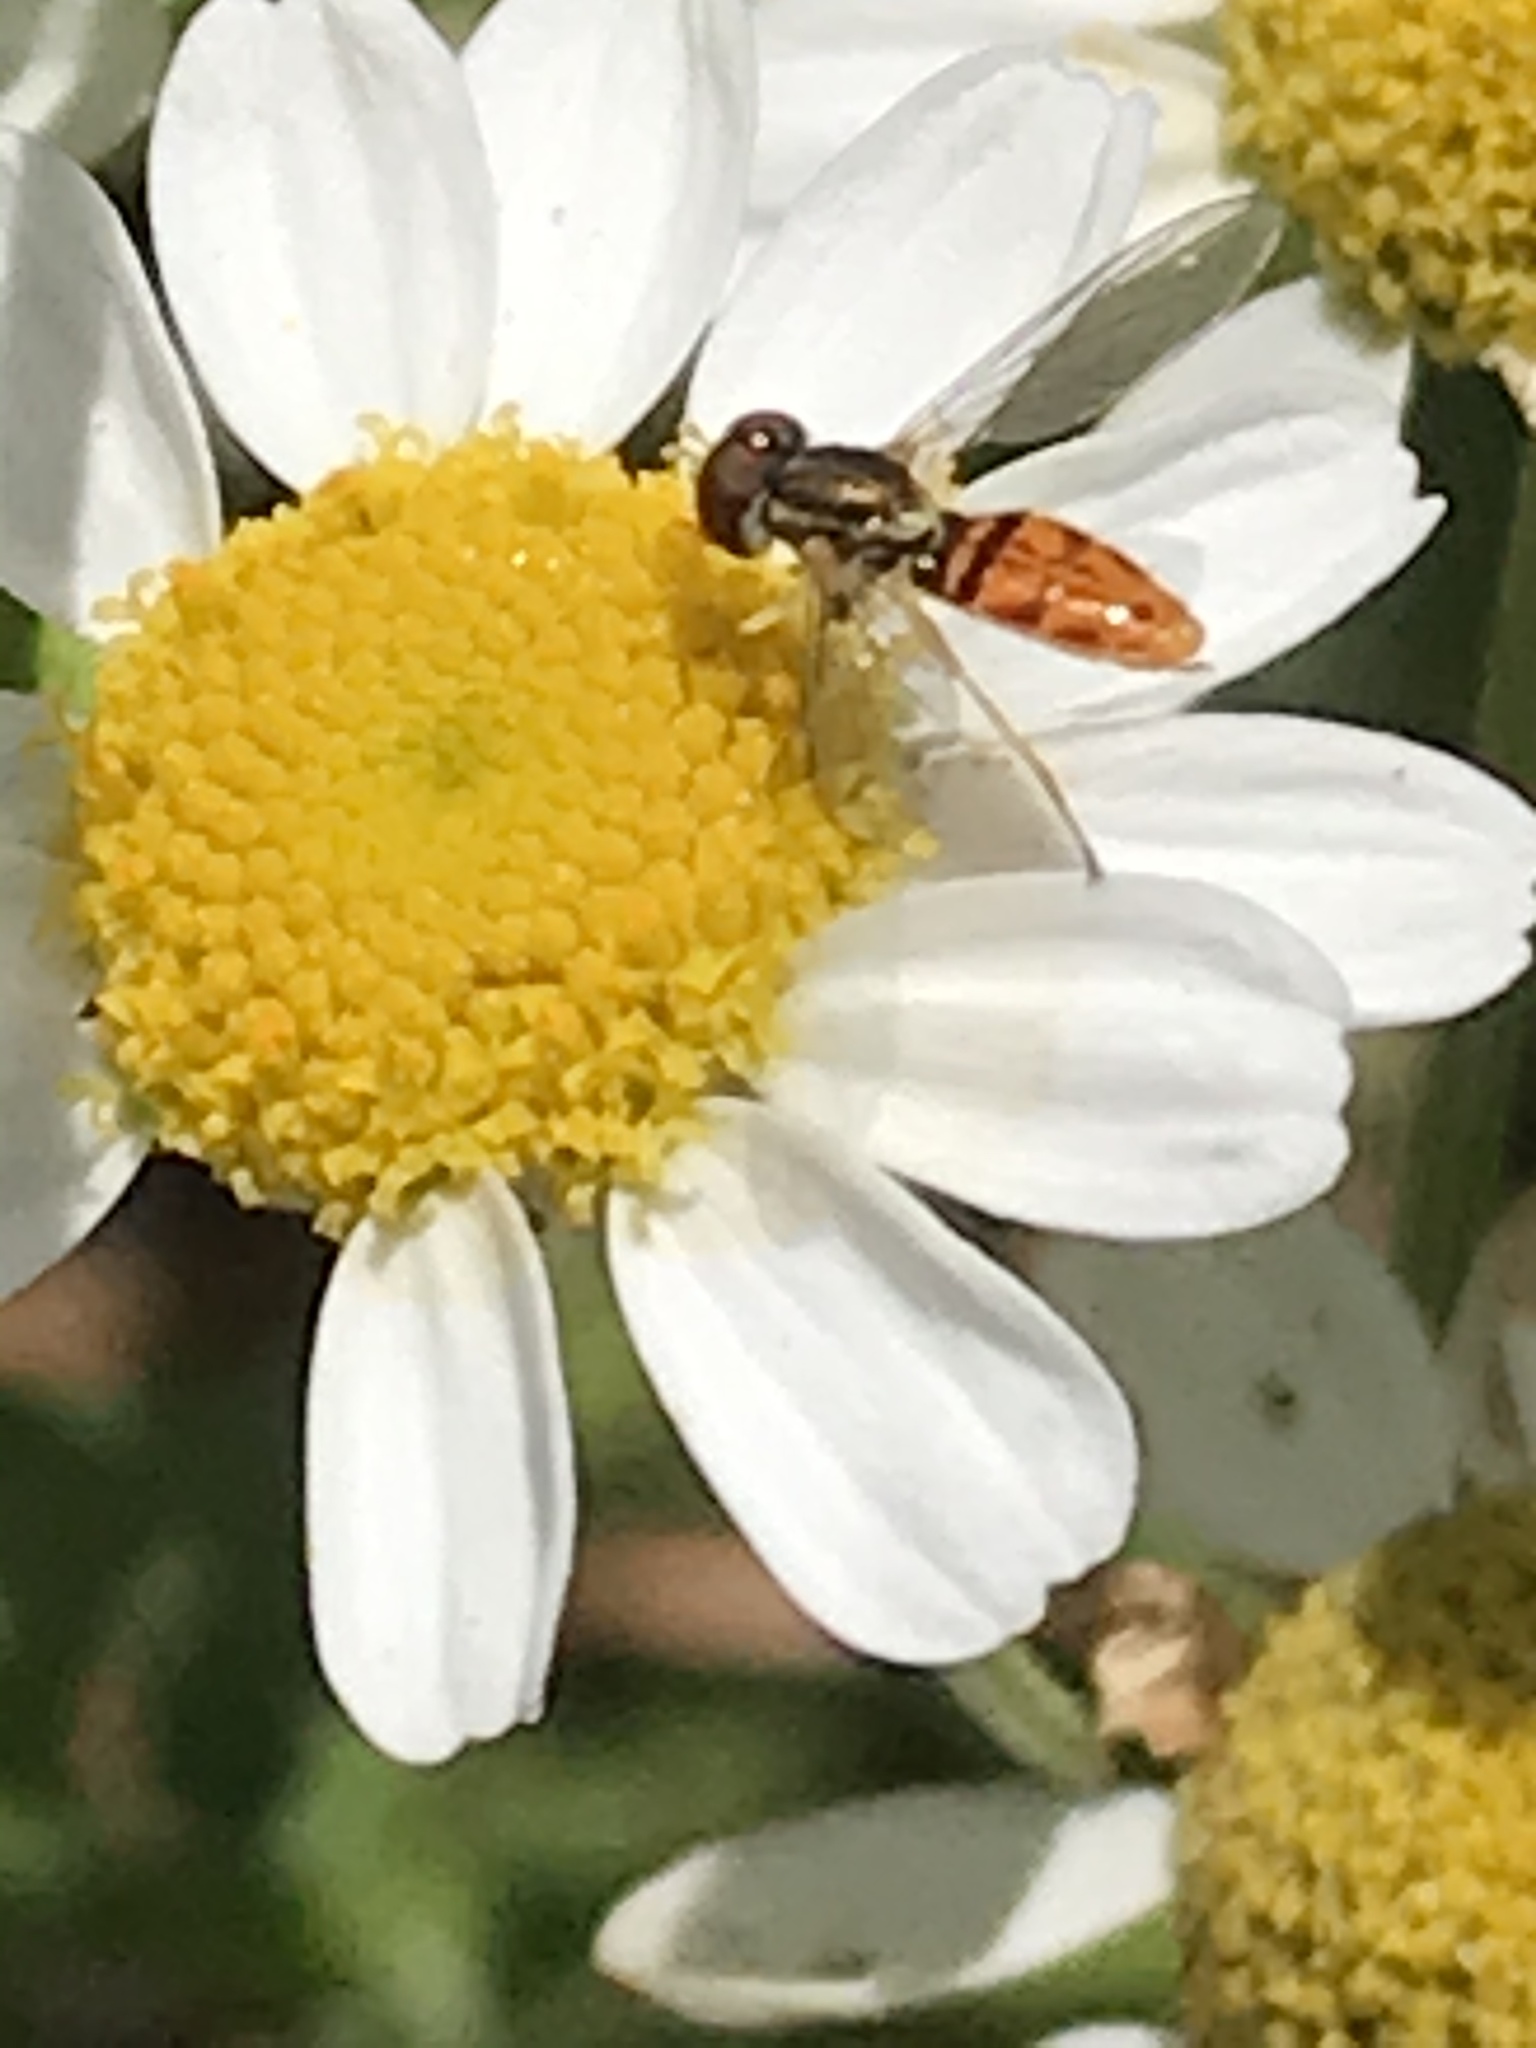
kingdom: Animalia
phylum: Arthropoda
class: Insecta
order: Diptera
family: Syrphidae
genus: Toxomerus
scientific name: Toxomerus marginatus
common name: Syrphid fly
